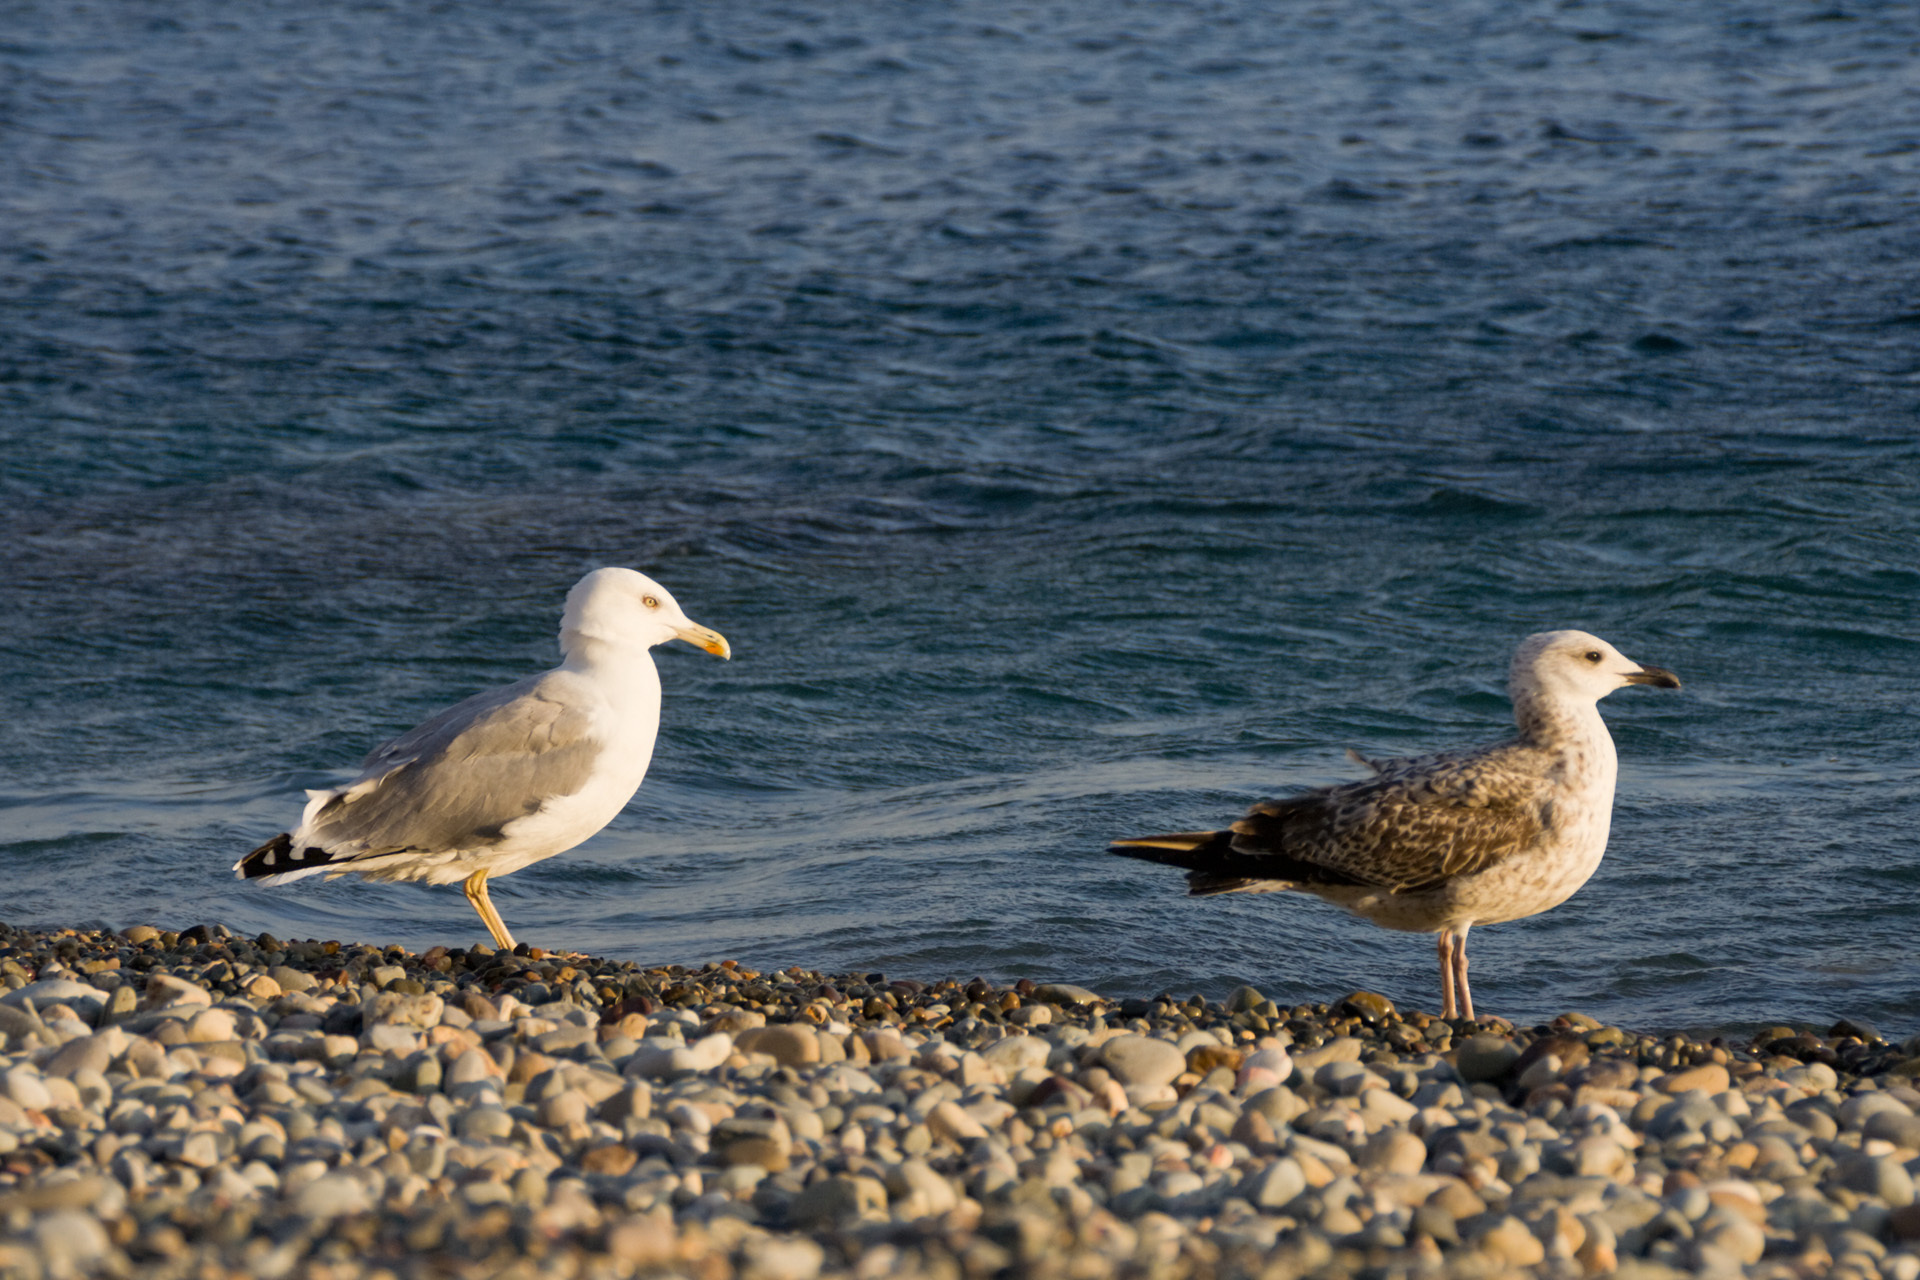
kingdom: Animalia
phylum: Chordata
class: Aves
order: Charadriiformes
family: Laridae
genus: Larus
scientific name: Larus michahellis
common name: Yellow-legged gull
